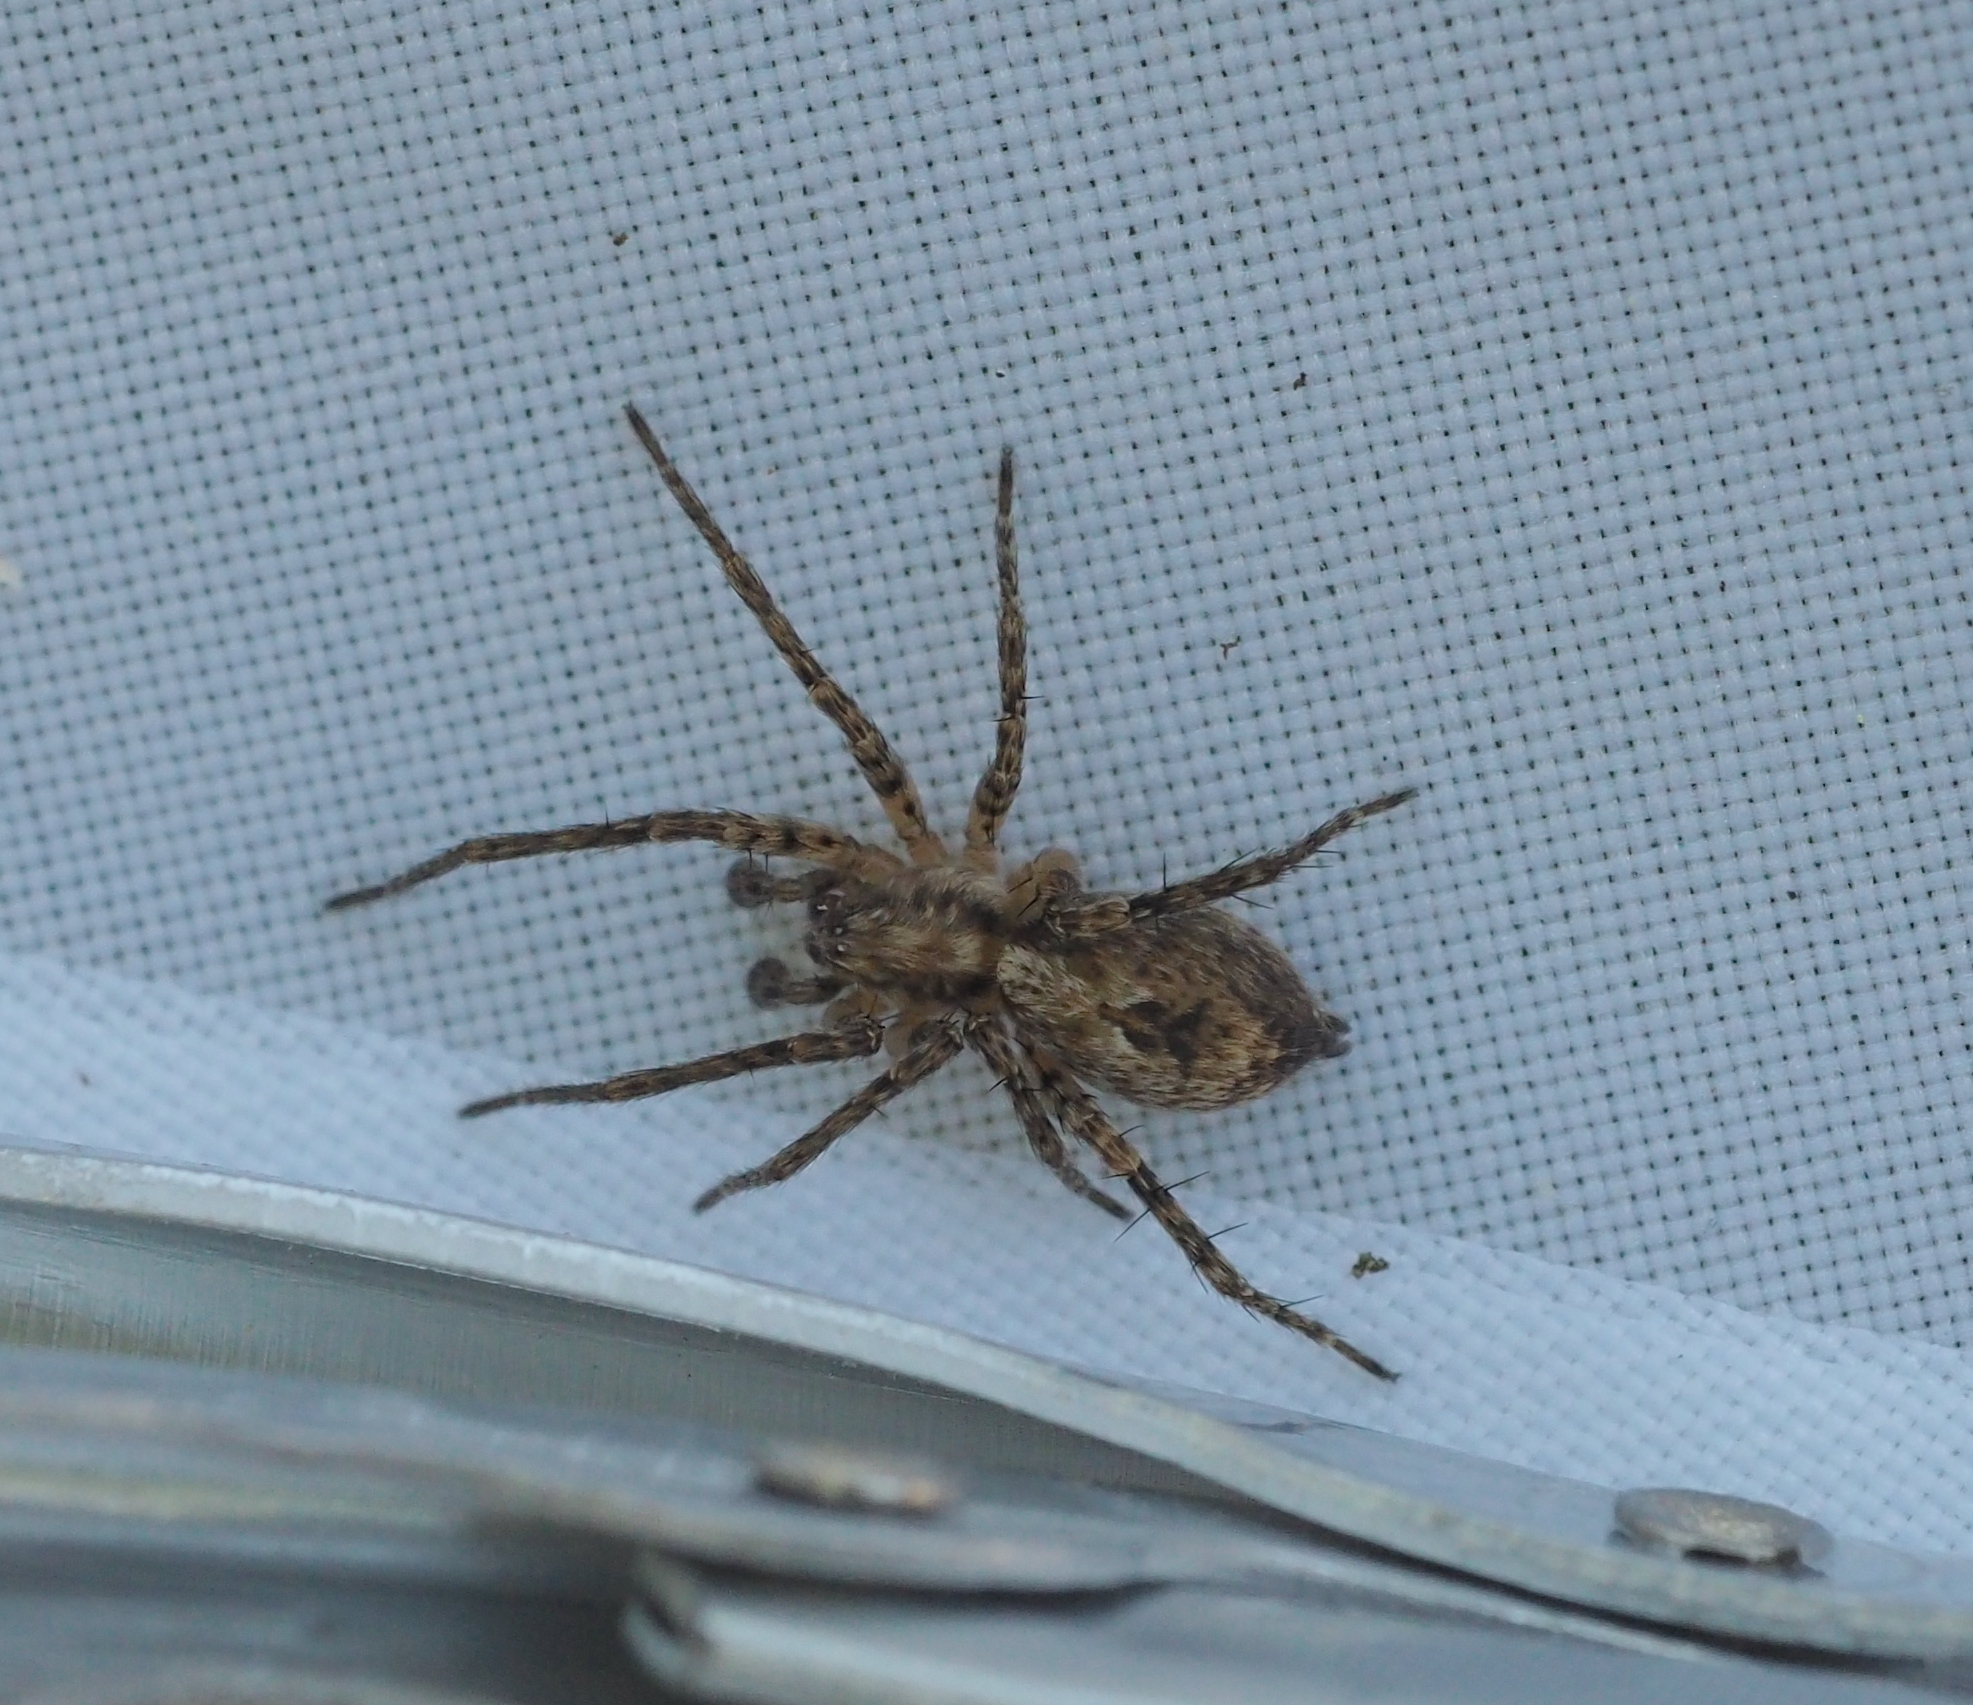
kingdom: Animalia
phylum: Arthropoda
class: Arachnida
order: Araneae
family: Anyphaenidae
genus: Anyphaena
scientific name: Anyphaena accentuata
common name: Buzzing spider
